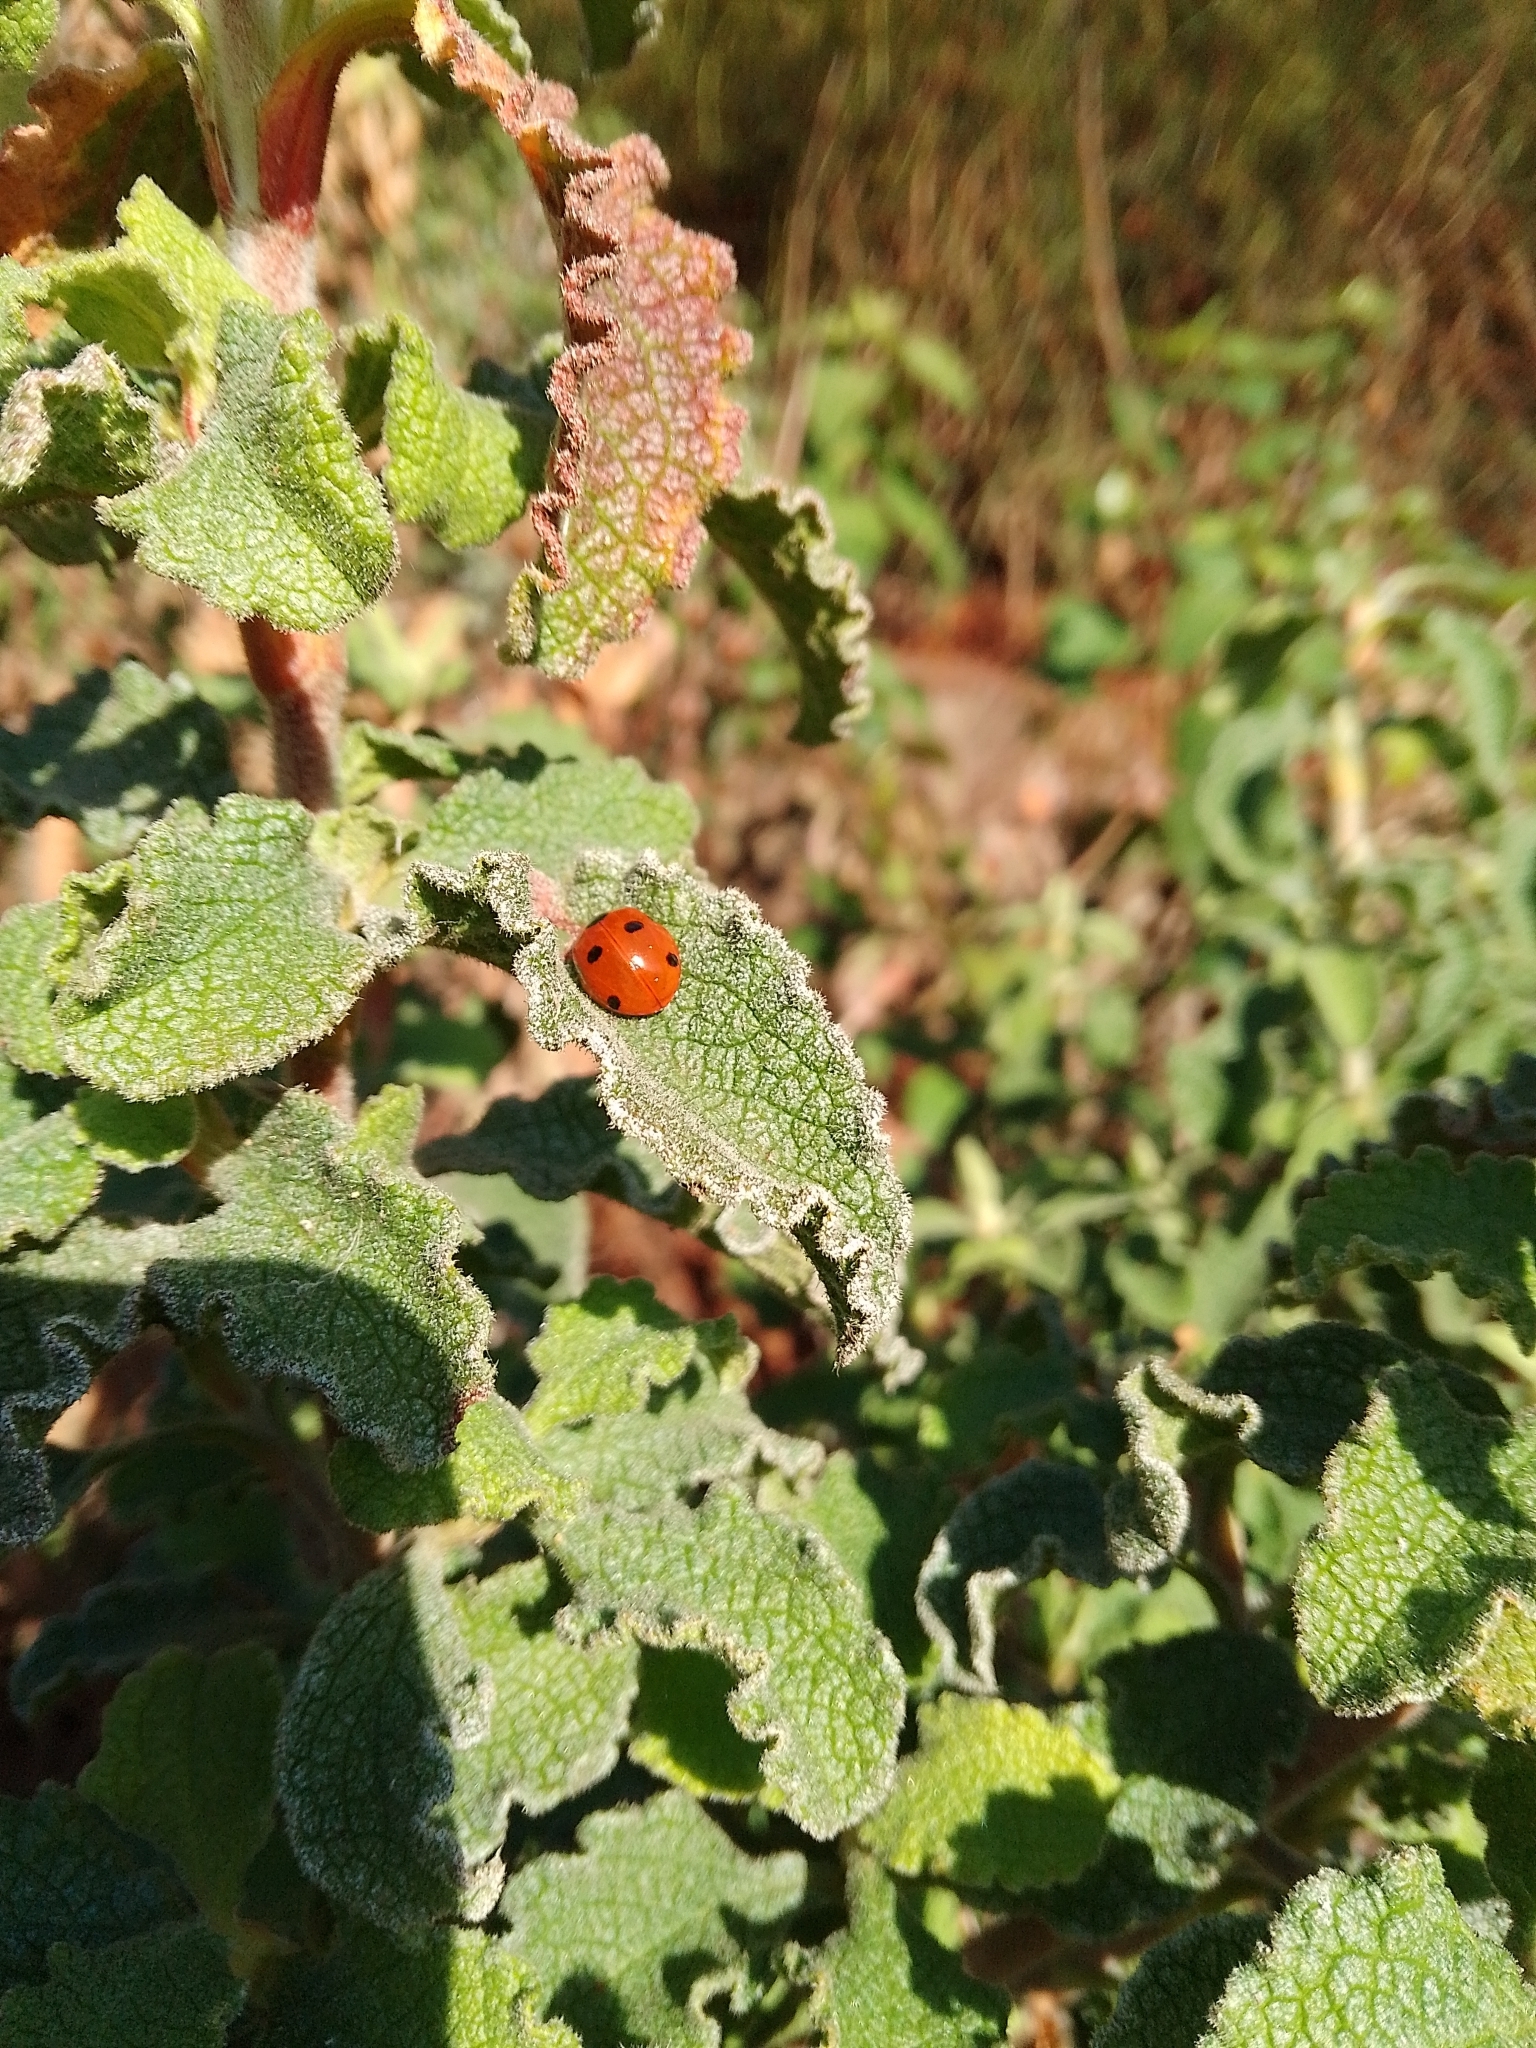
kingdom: Animalia
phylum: Arthropoda
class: Insecta
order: Coleoptera
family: Coccinellidae
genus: Coccinella
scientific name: Coccinella septempunctata
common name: Sevenspotted lady beetle
